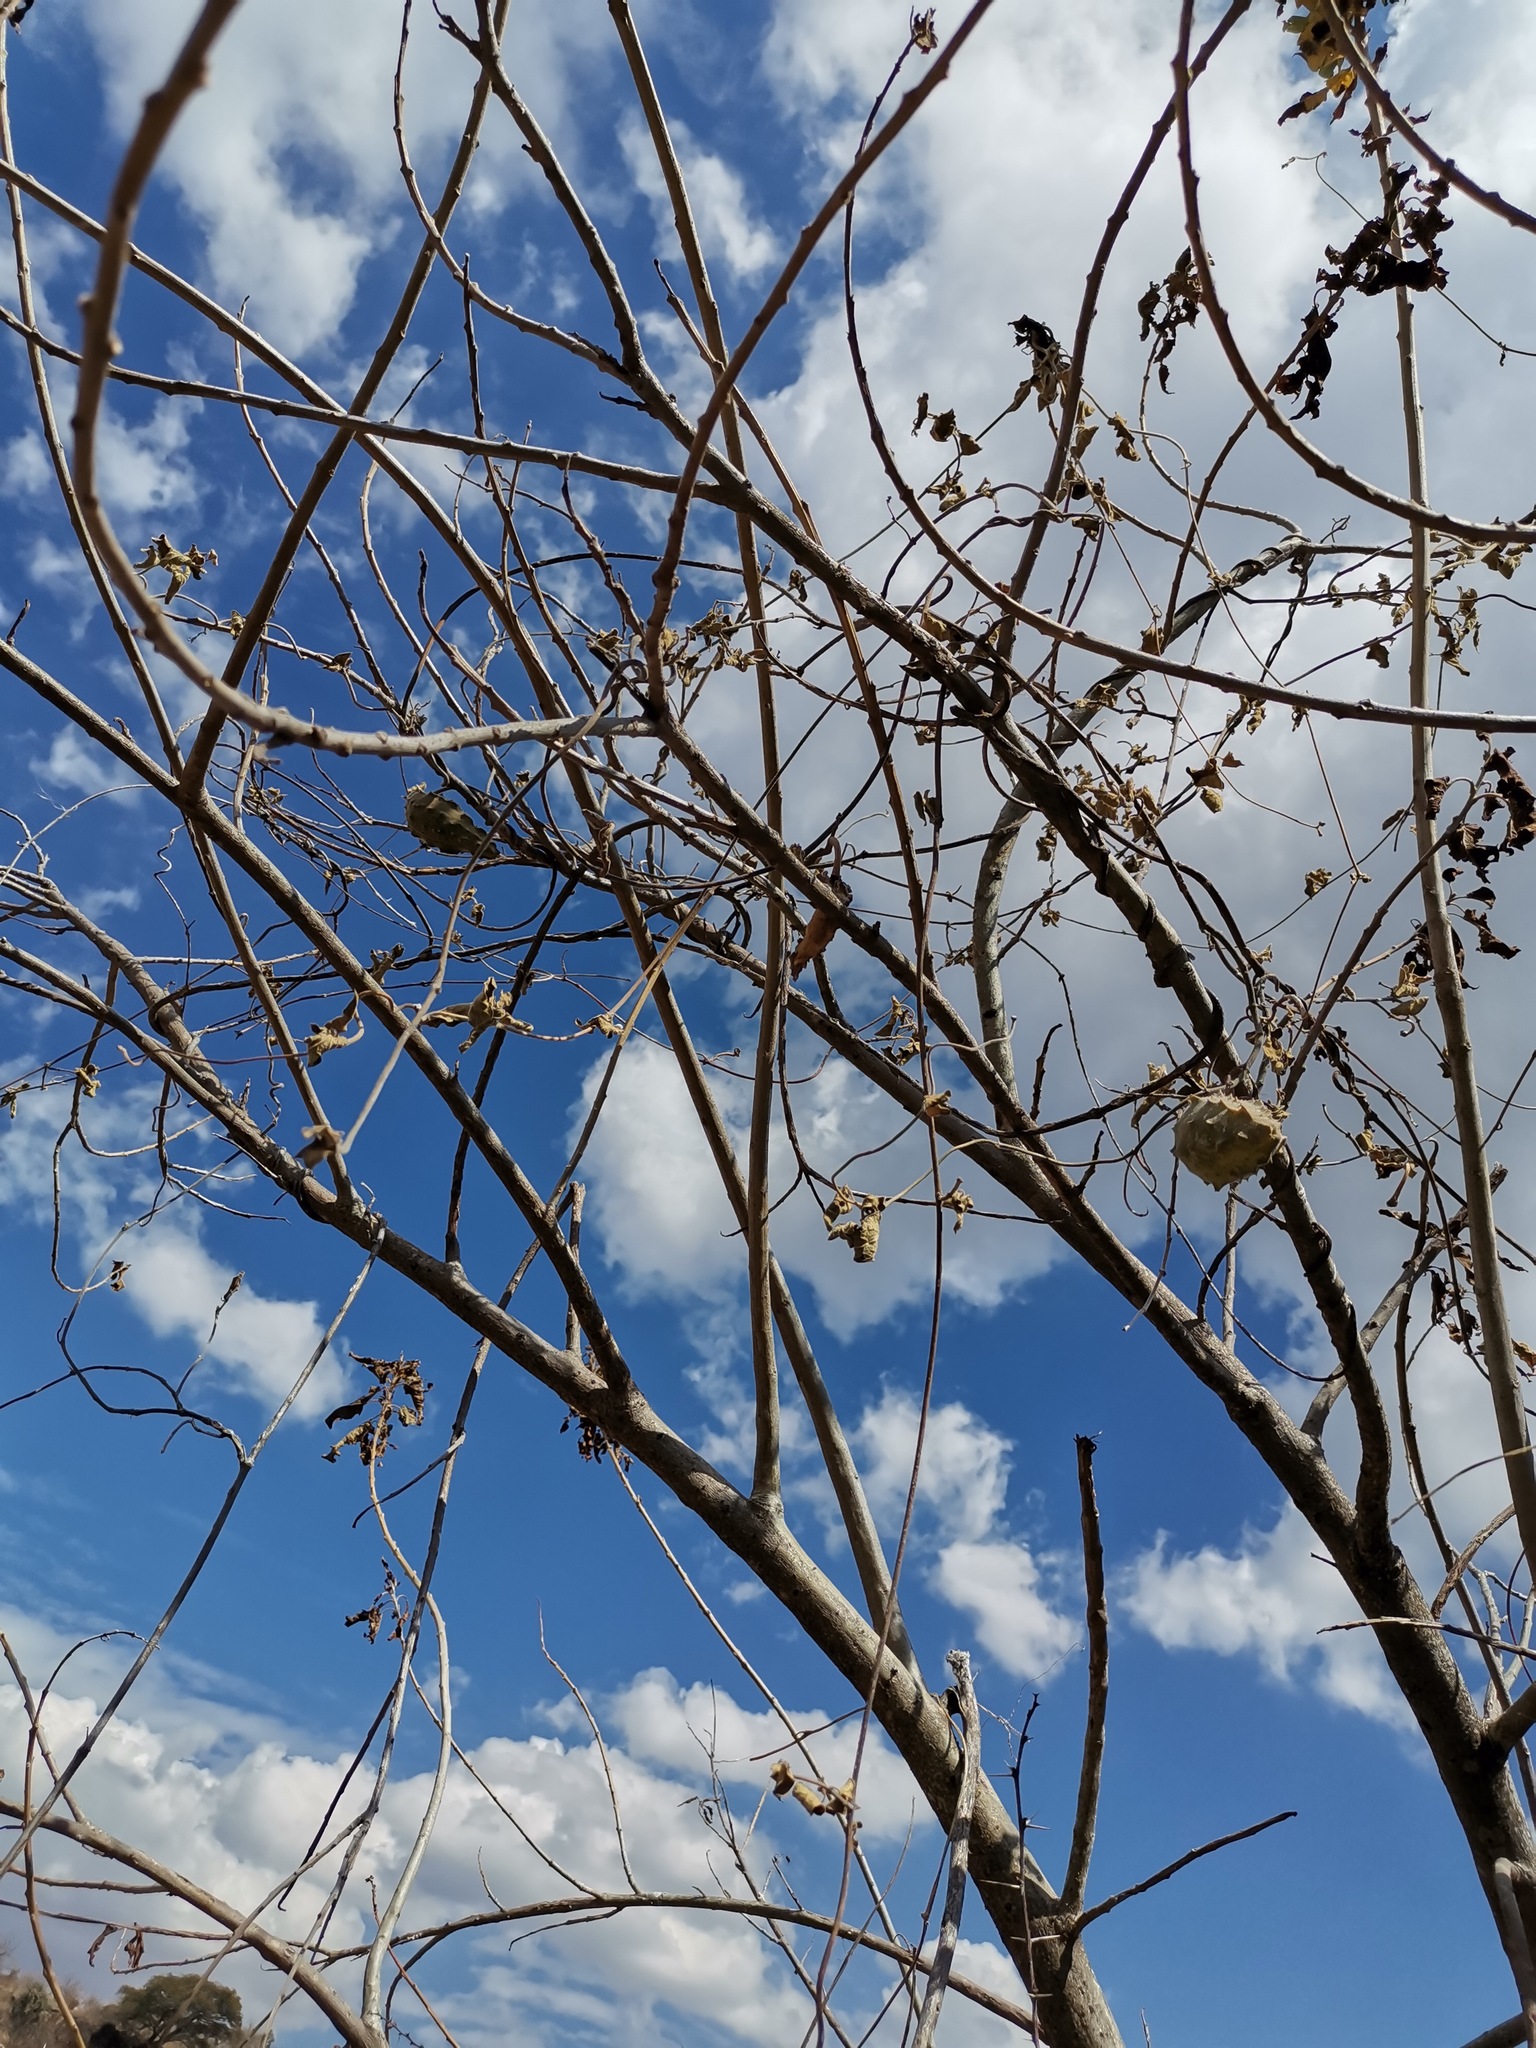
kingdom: Plantae
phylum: Tracheophyta
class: Magnoliopsida
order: Gentianales
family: Apocynaceae
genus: Gonolobus
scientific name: Gonolobus grandiflorus
